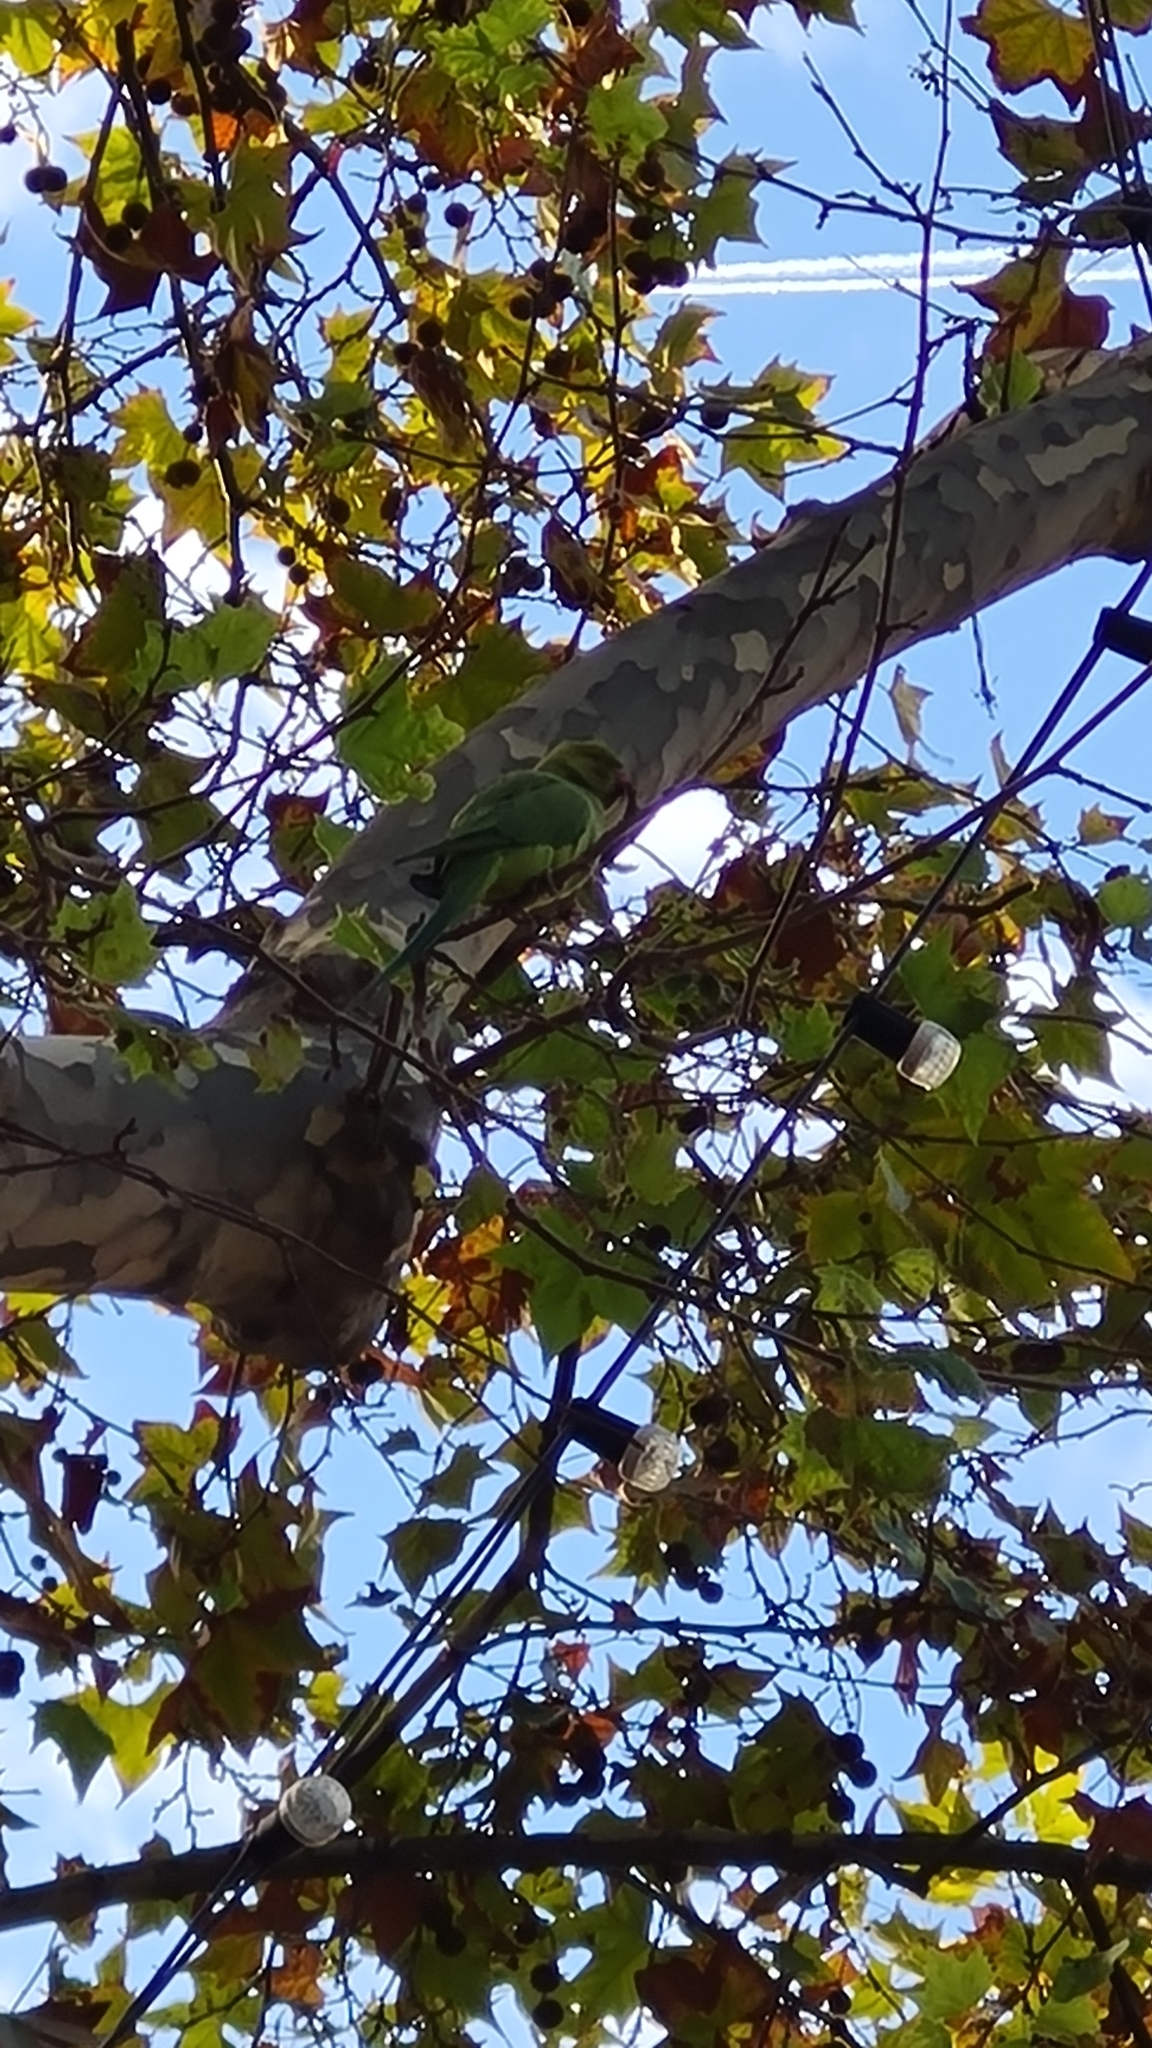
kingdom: Animalia
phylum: Chordata
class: Aves
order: Psittaciformes
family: Psittacidae
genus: Myiopsitta
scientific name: Myiopsitta monachus
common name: Monk parakeet
